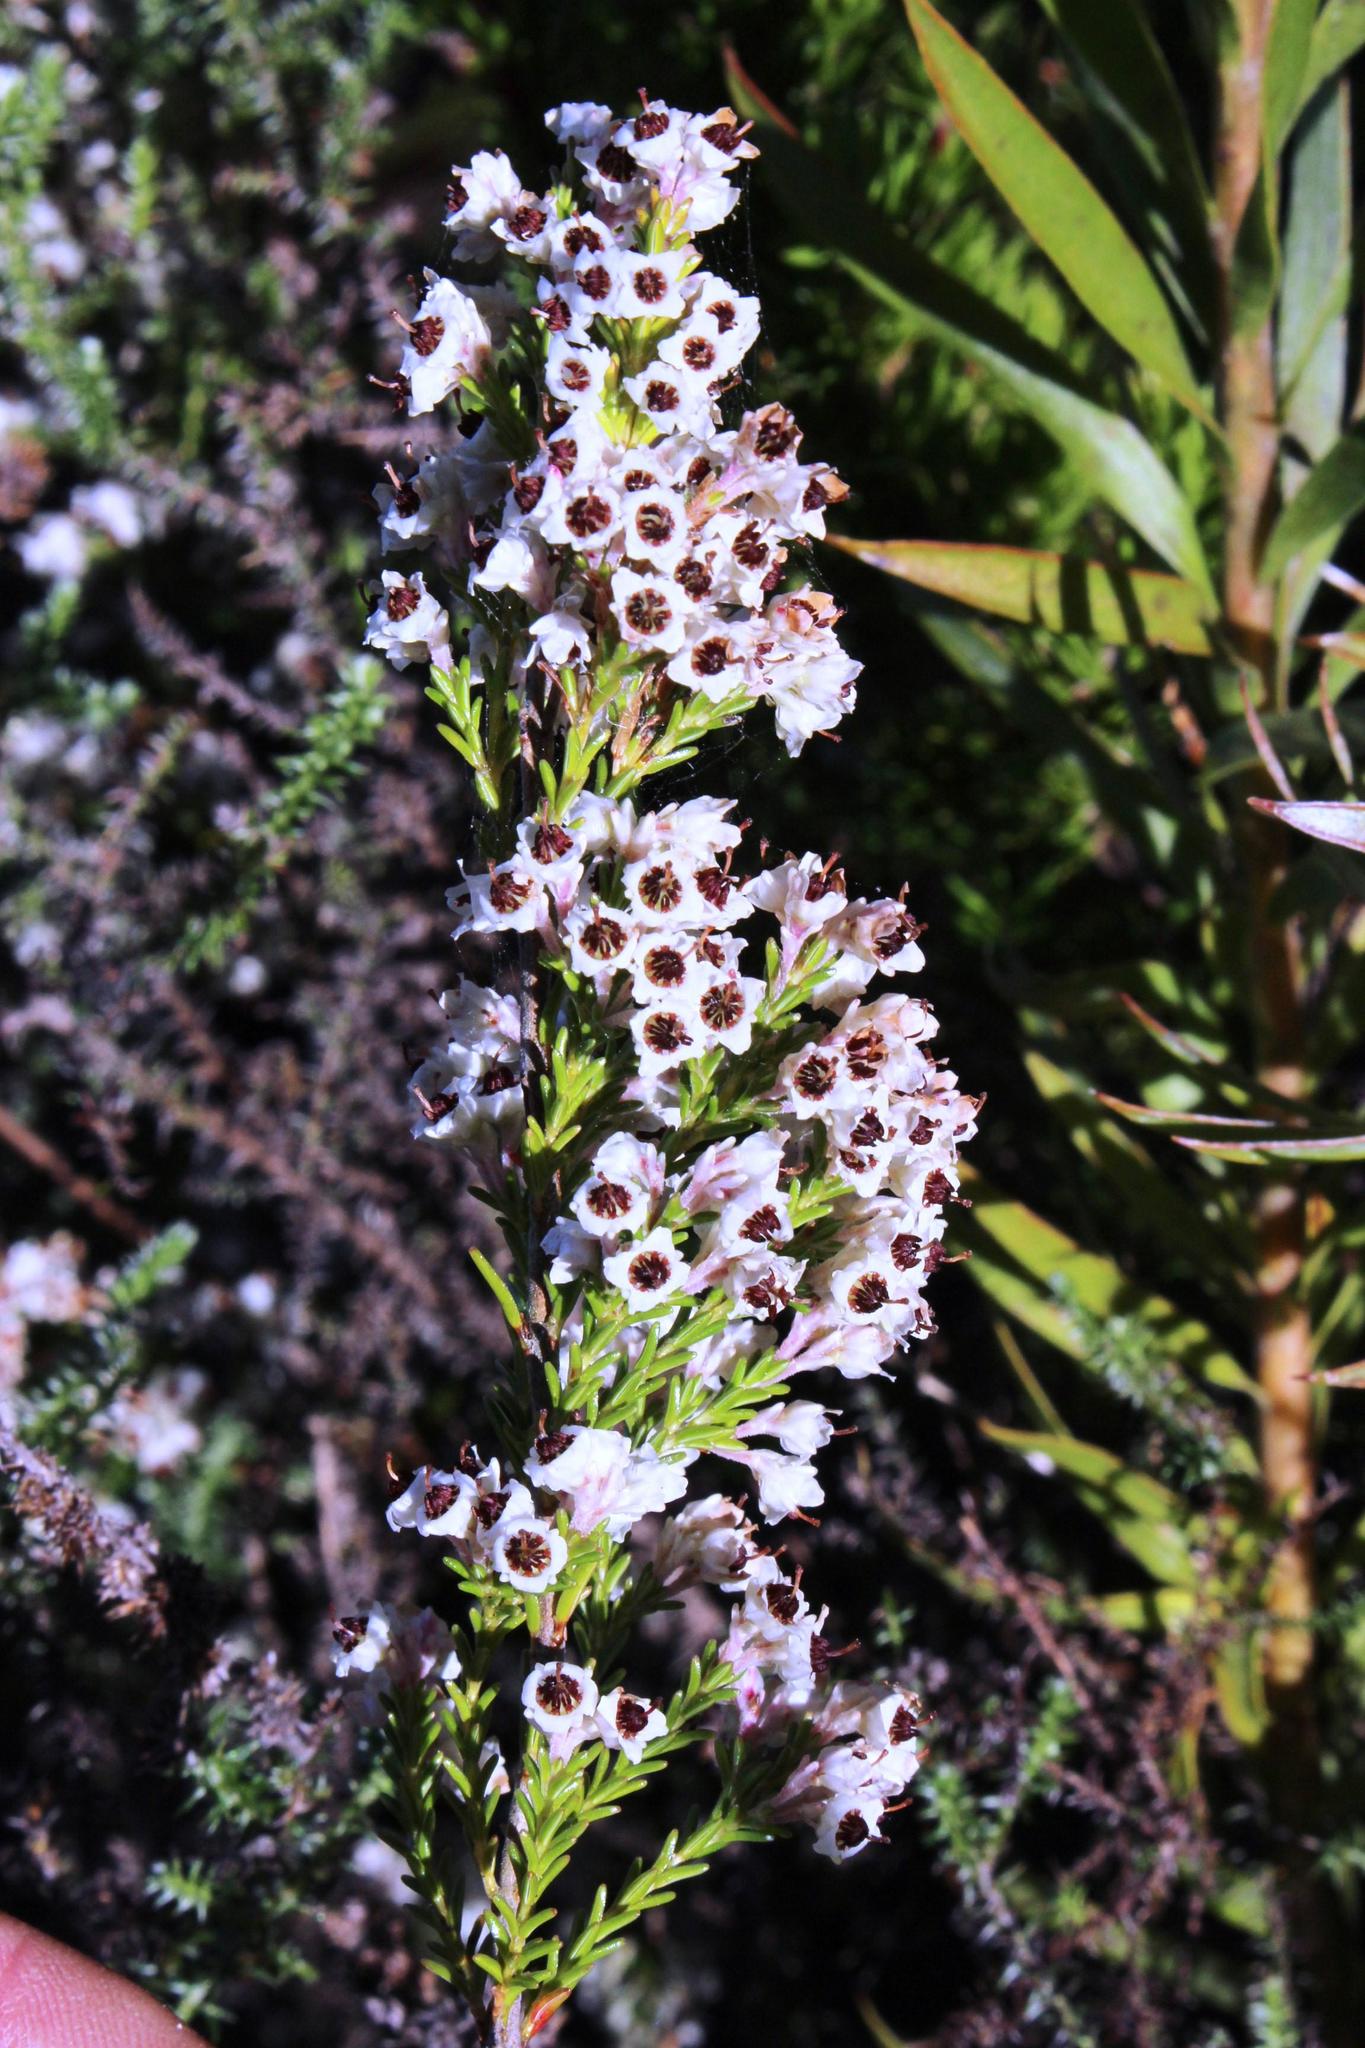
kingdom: Plantae
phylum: Tracheophyta
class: Magnoliopsida
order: Ericales
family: Ericaceae
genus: Erica
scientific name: Erica calycina
